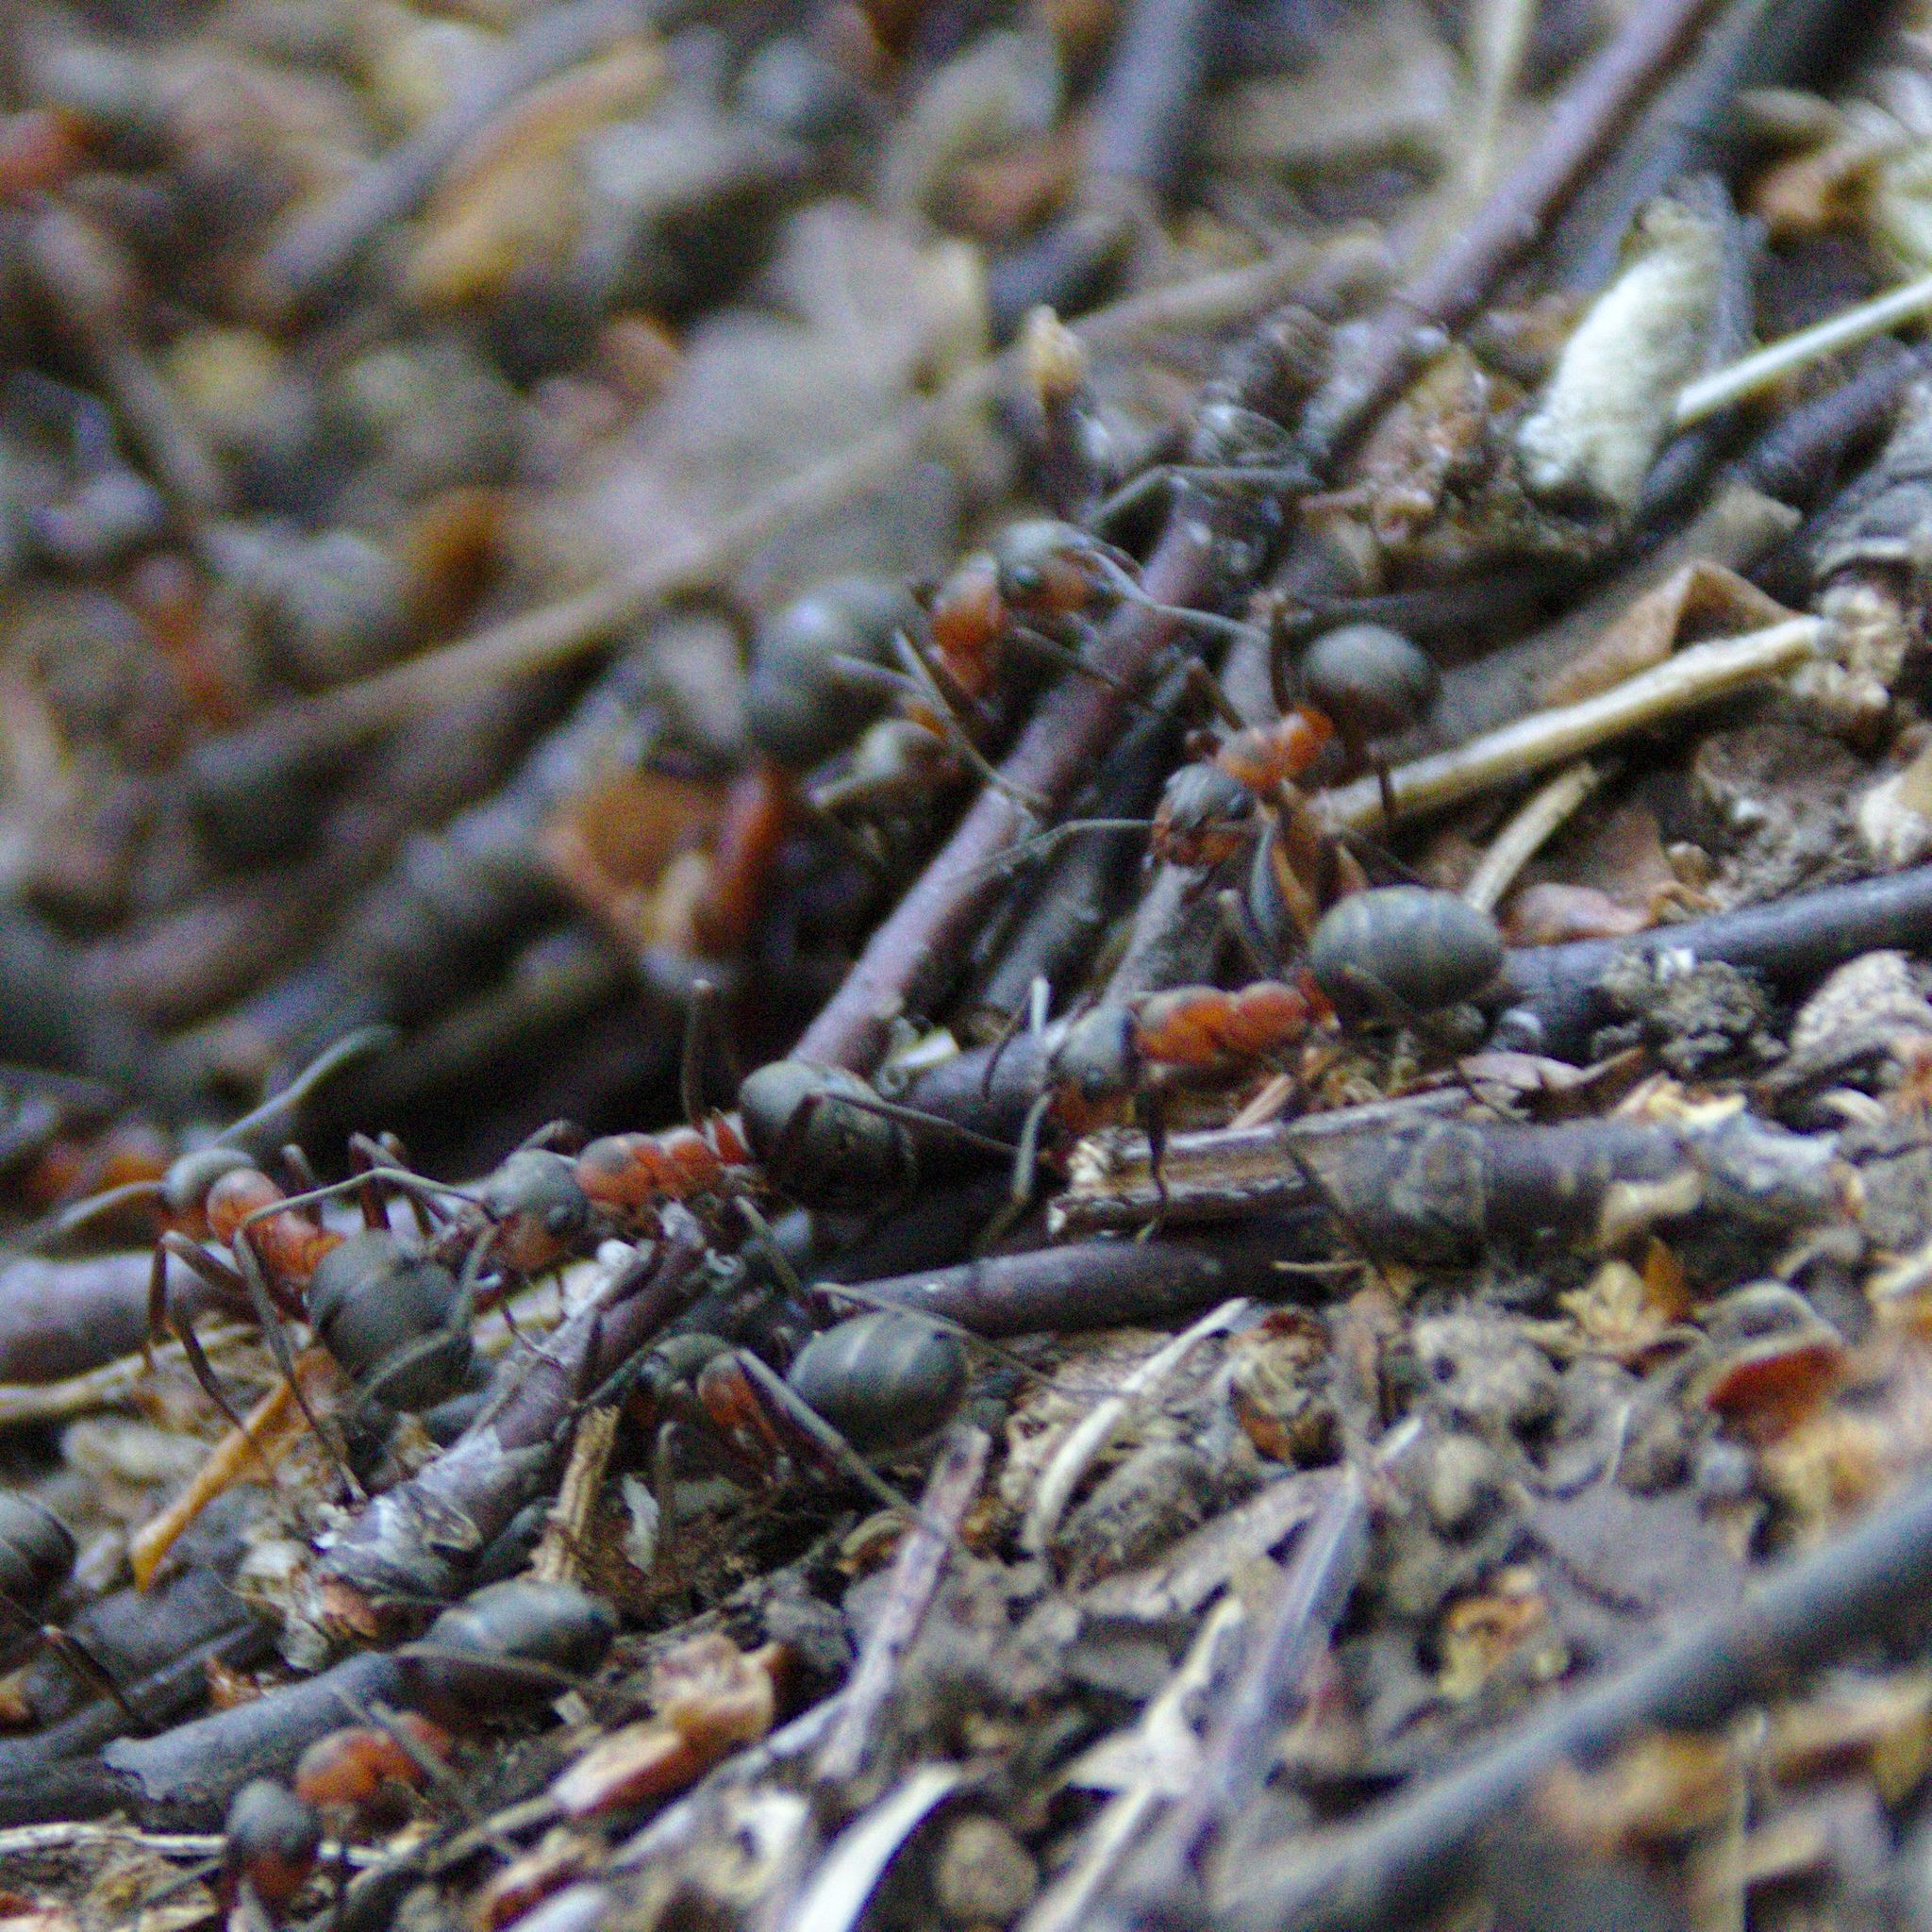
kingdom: Animalia
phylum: Arthropoda
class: Insecta
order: Hymenoptera
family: Formicidae
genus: Formica
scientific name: Formica
